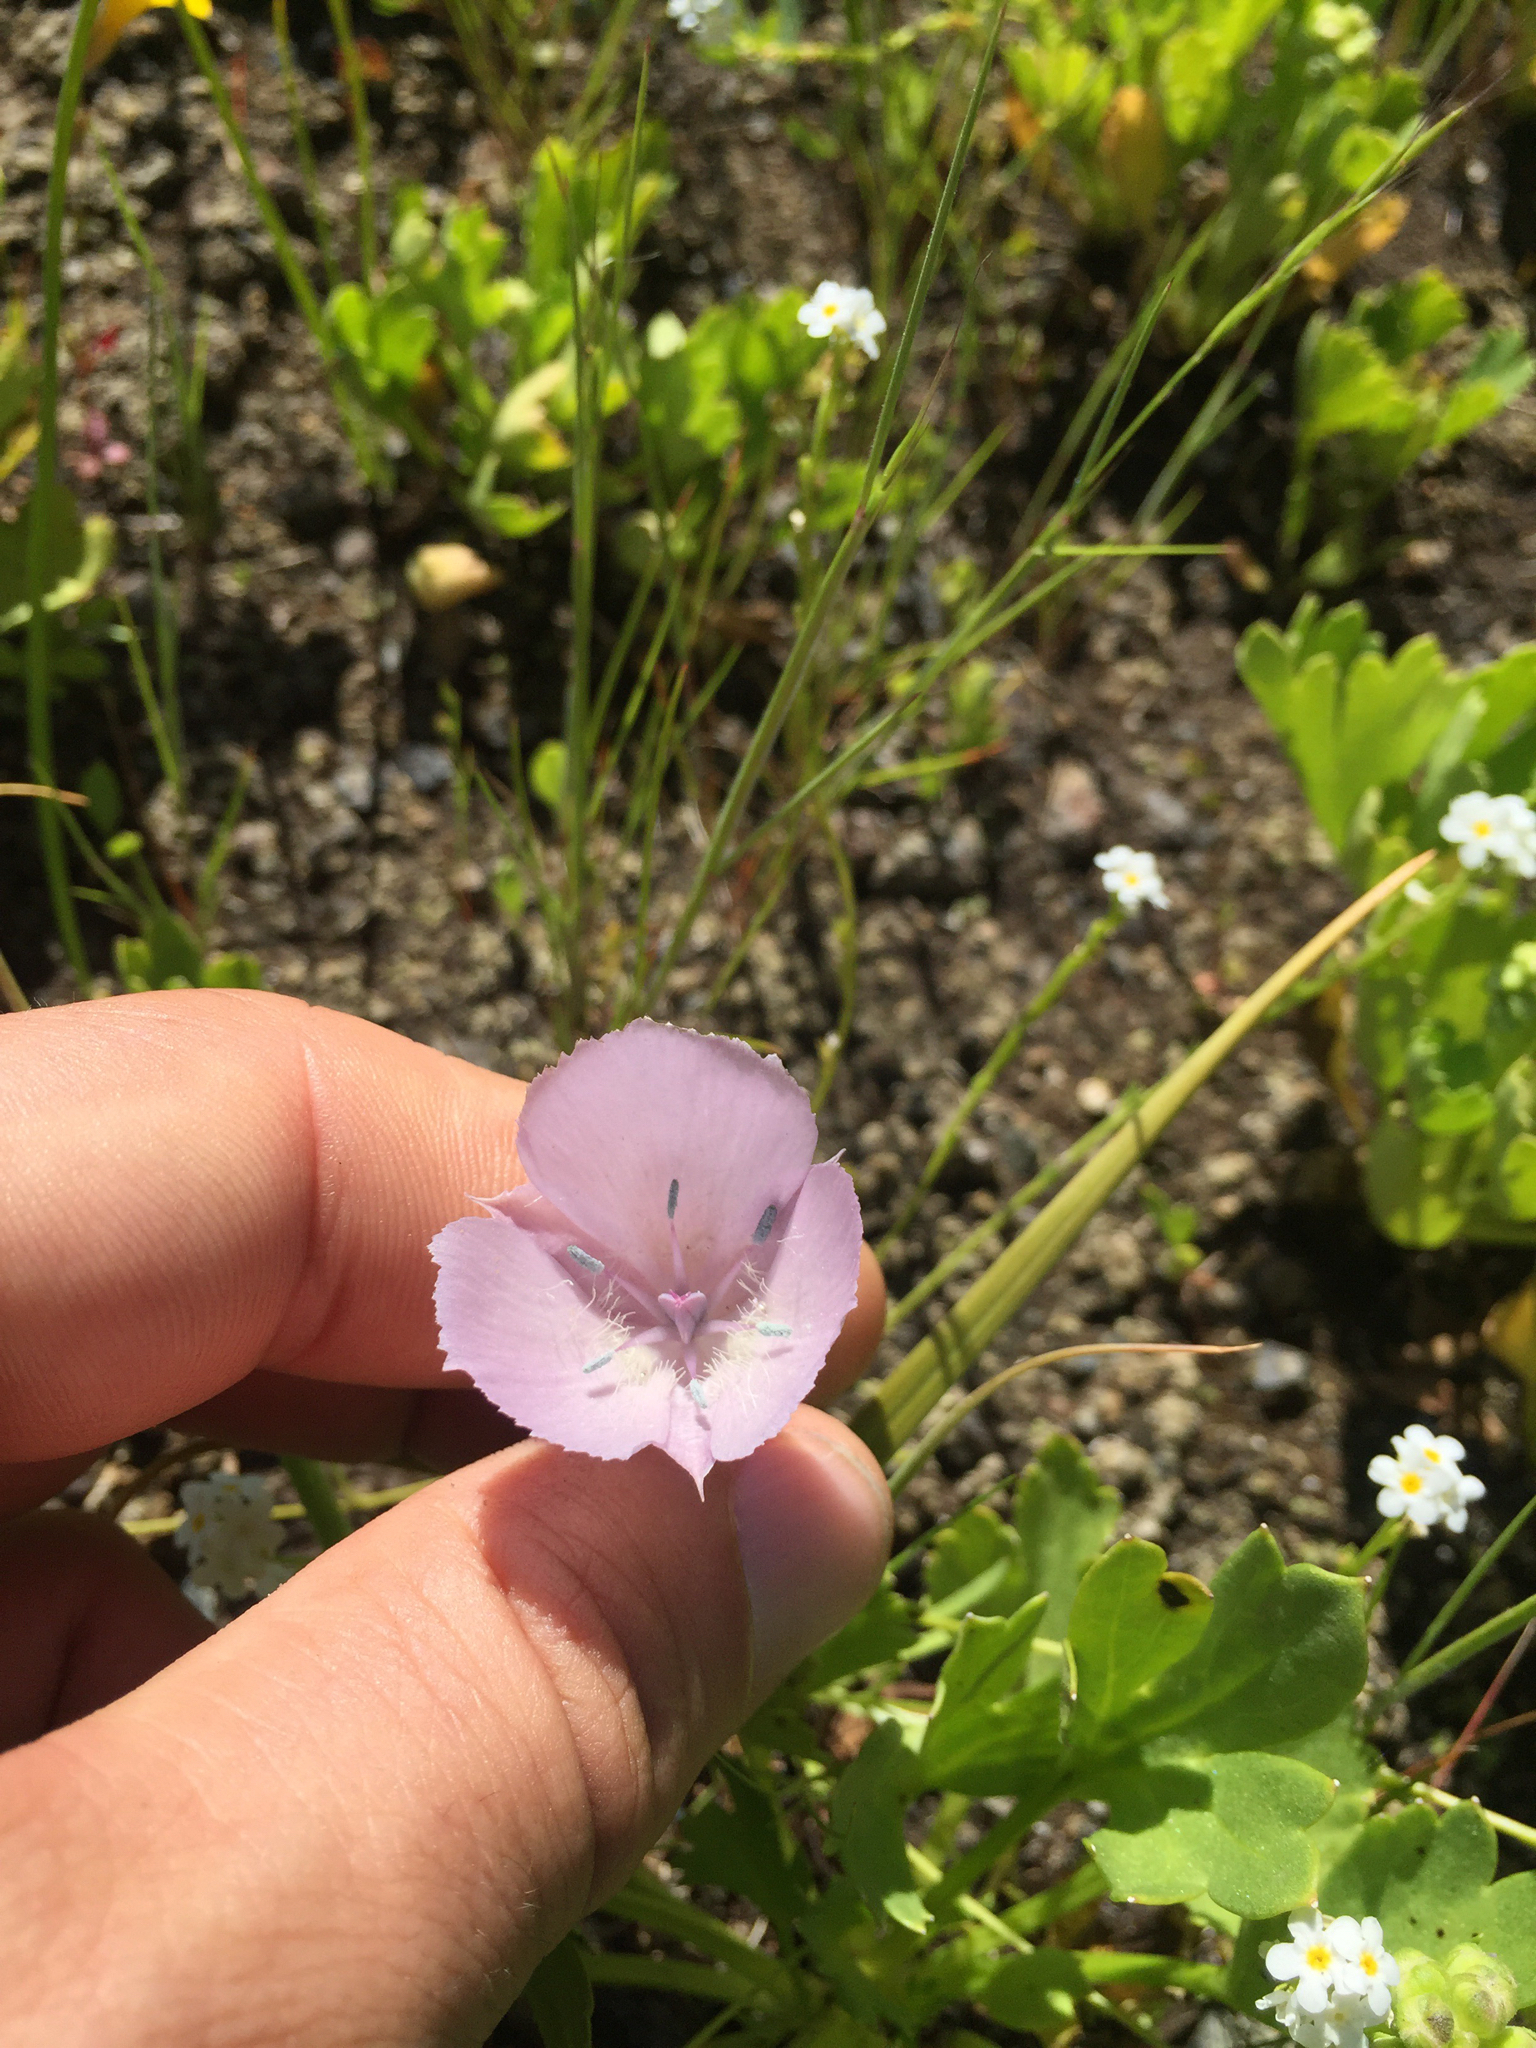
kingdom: Plantae
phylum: Tracheophyta
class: Liliopsida
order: Liliales
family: Liliaceae
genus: Calochortus
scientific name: Calochortus uniflorus
